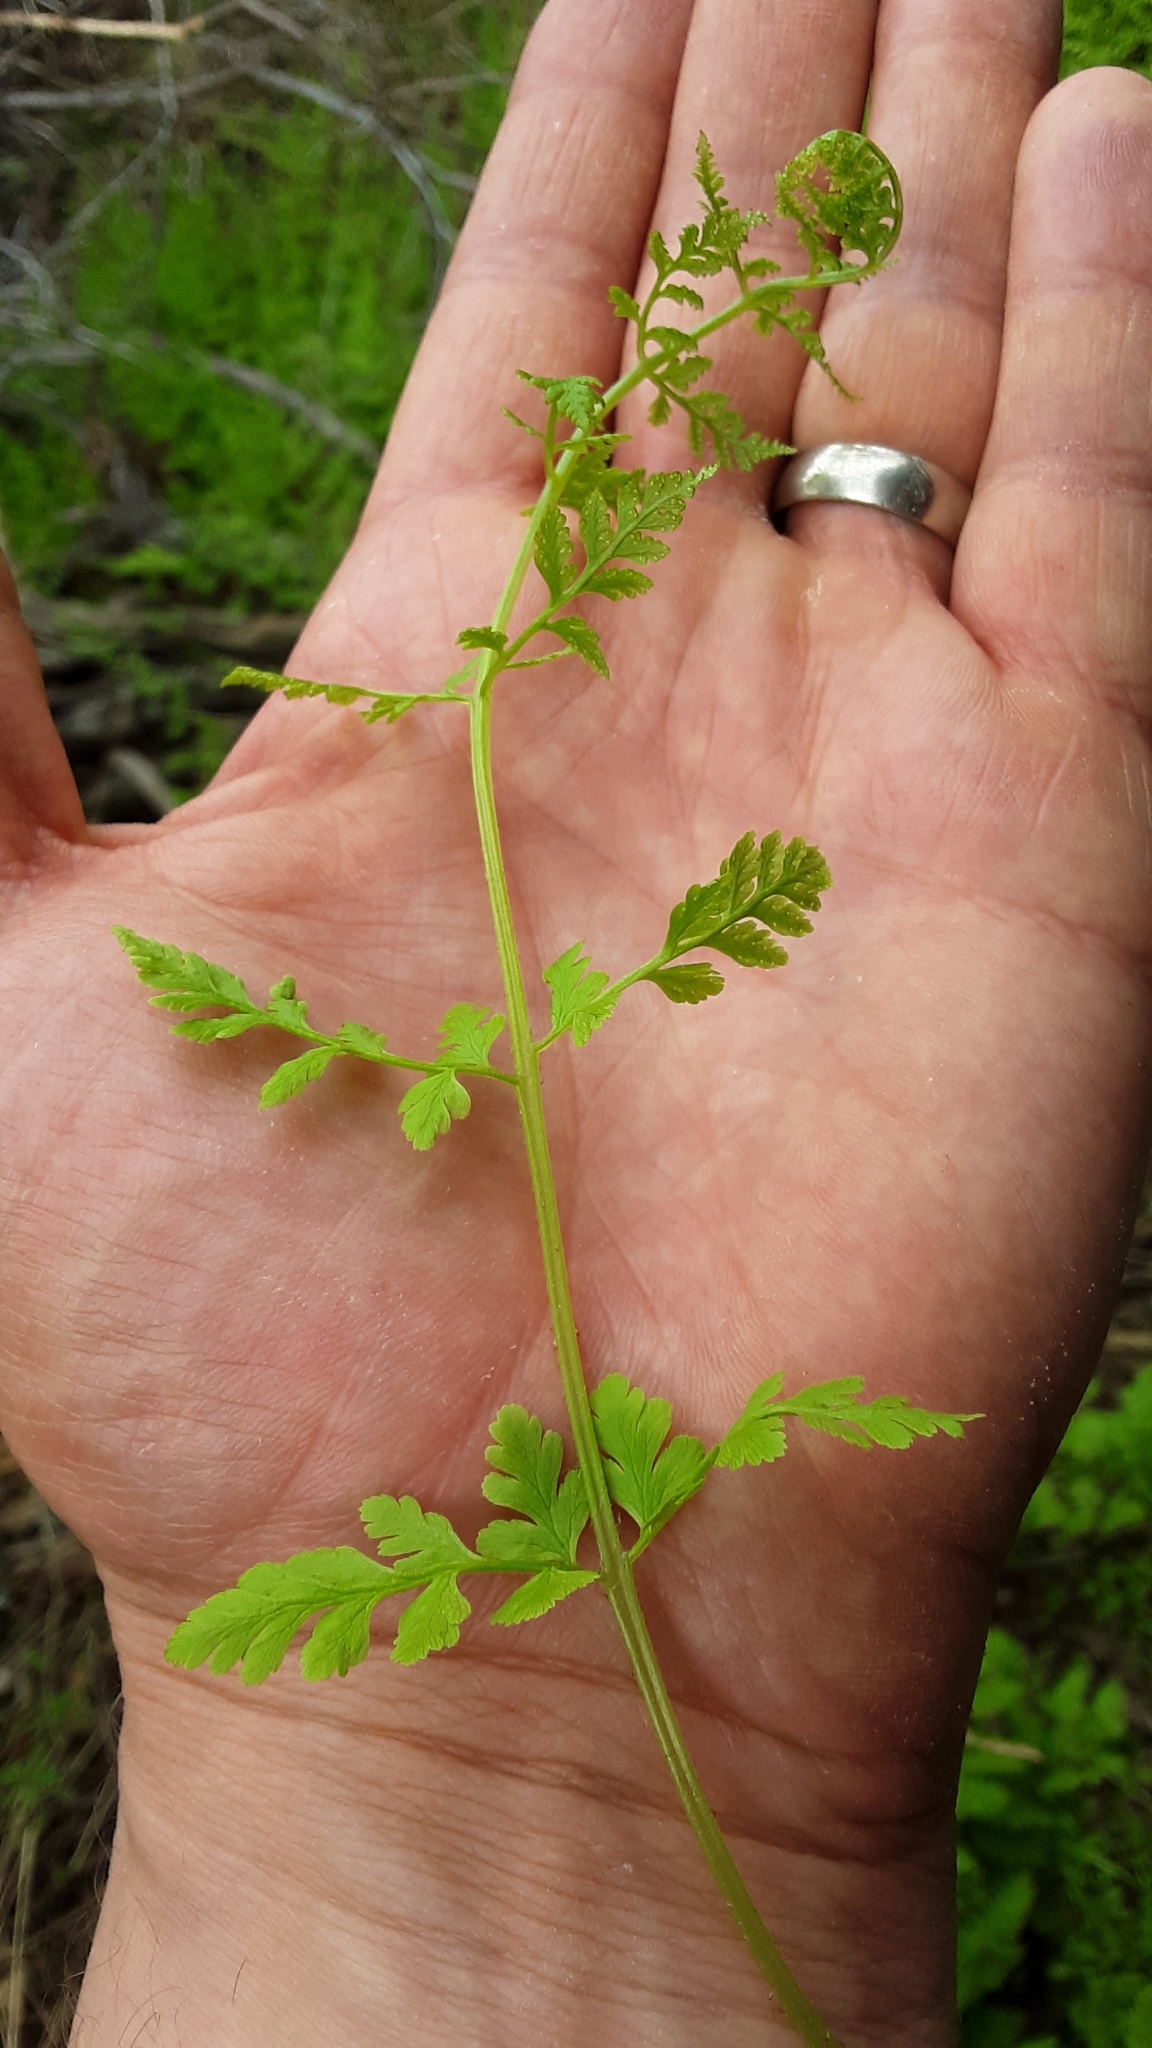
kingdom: Plantae
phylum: Tracheophyta
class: Polypodiopsida
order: Polypodiales
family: Cystopteridaceae
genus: Cystopteris
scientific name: Cystopteris fragilis
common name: Brittle bladder fern
